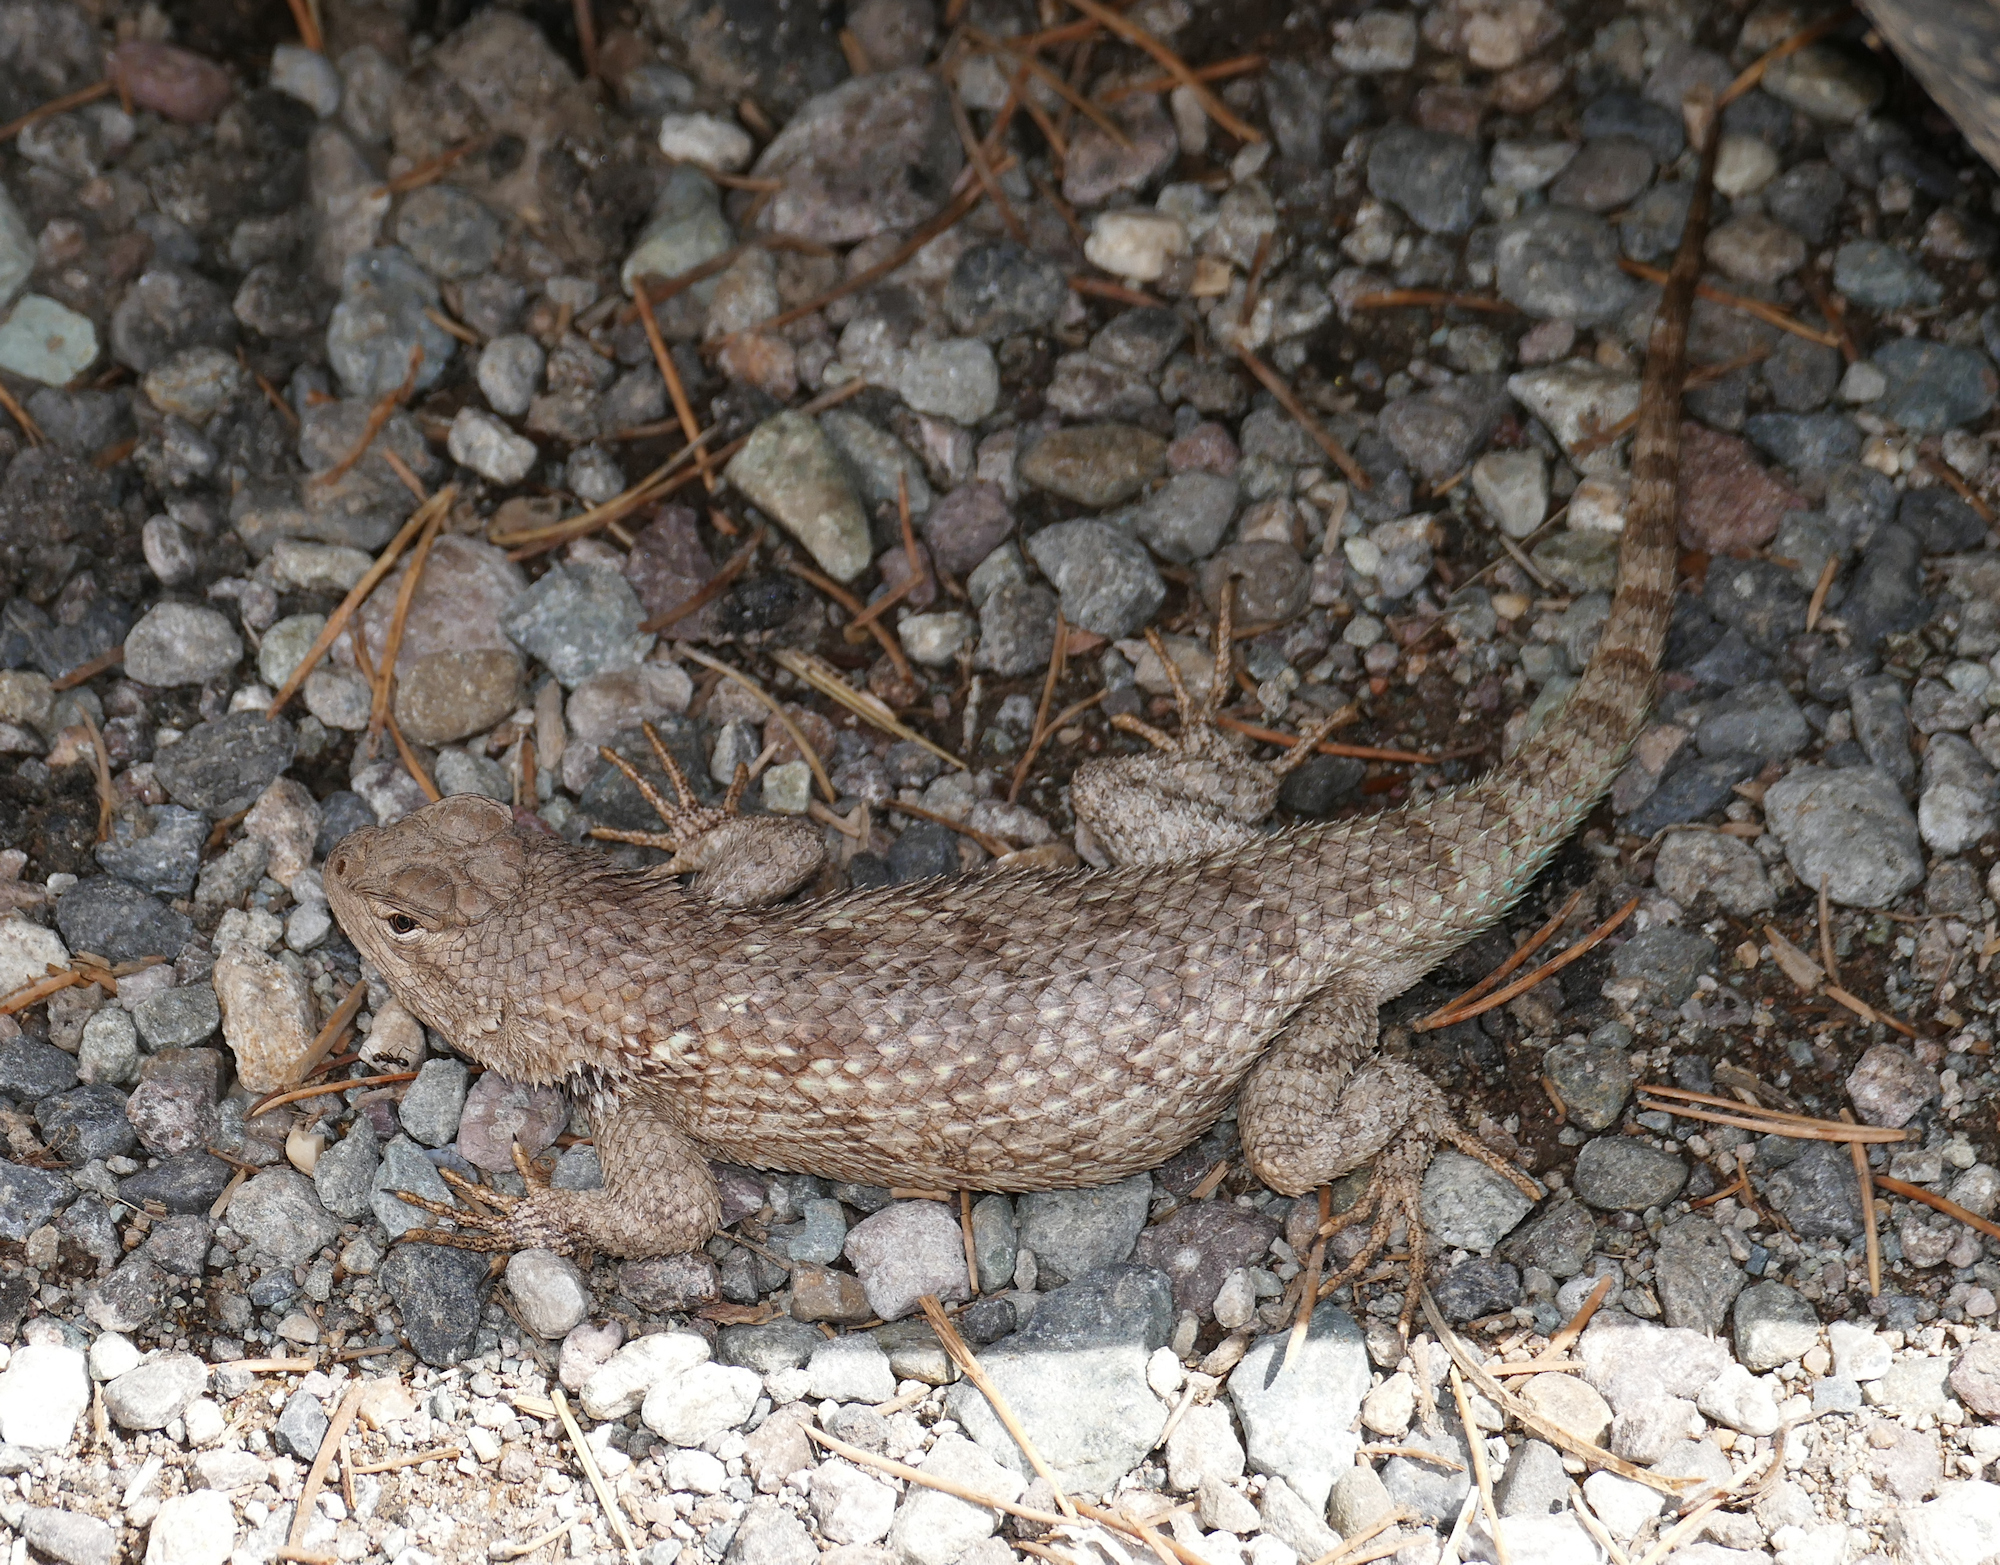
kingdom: Animalia
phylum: Chordata
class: Squamata
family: Phrynosomatidae
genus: Sceloporus
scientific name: Sceloporus clarkii
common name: Clark's spiny lizard
